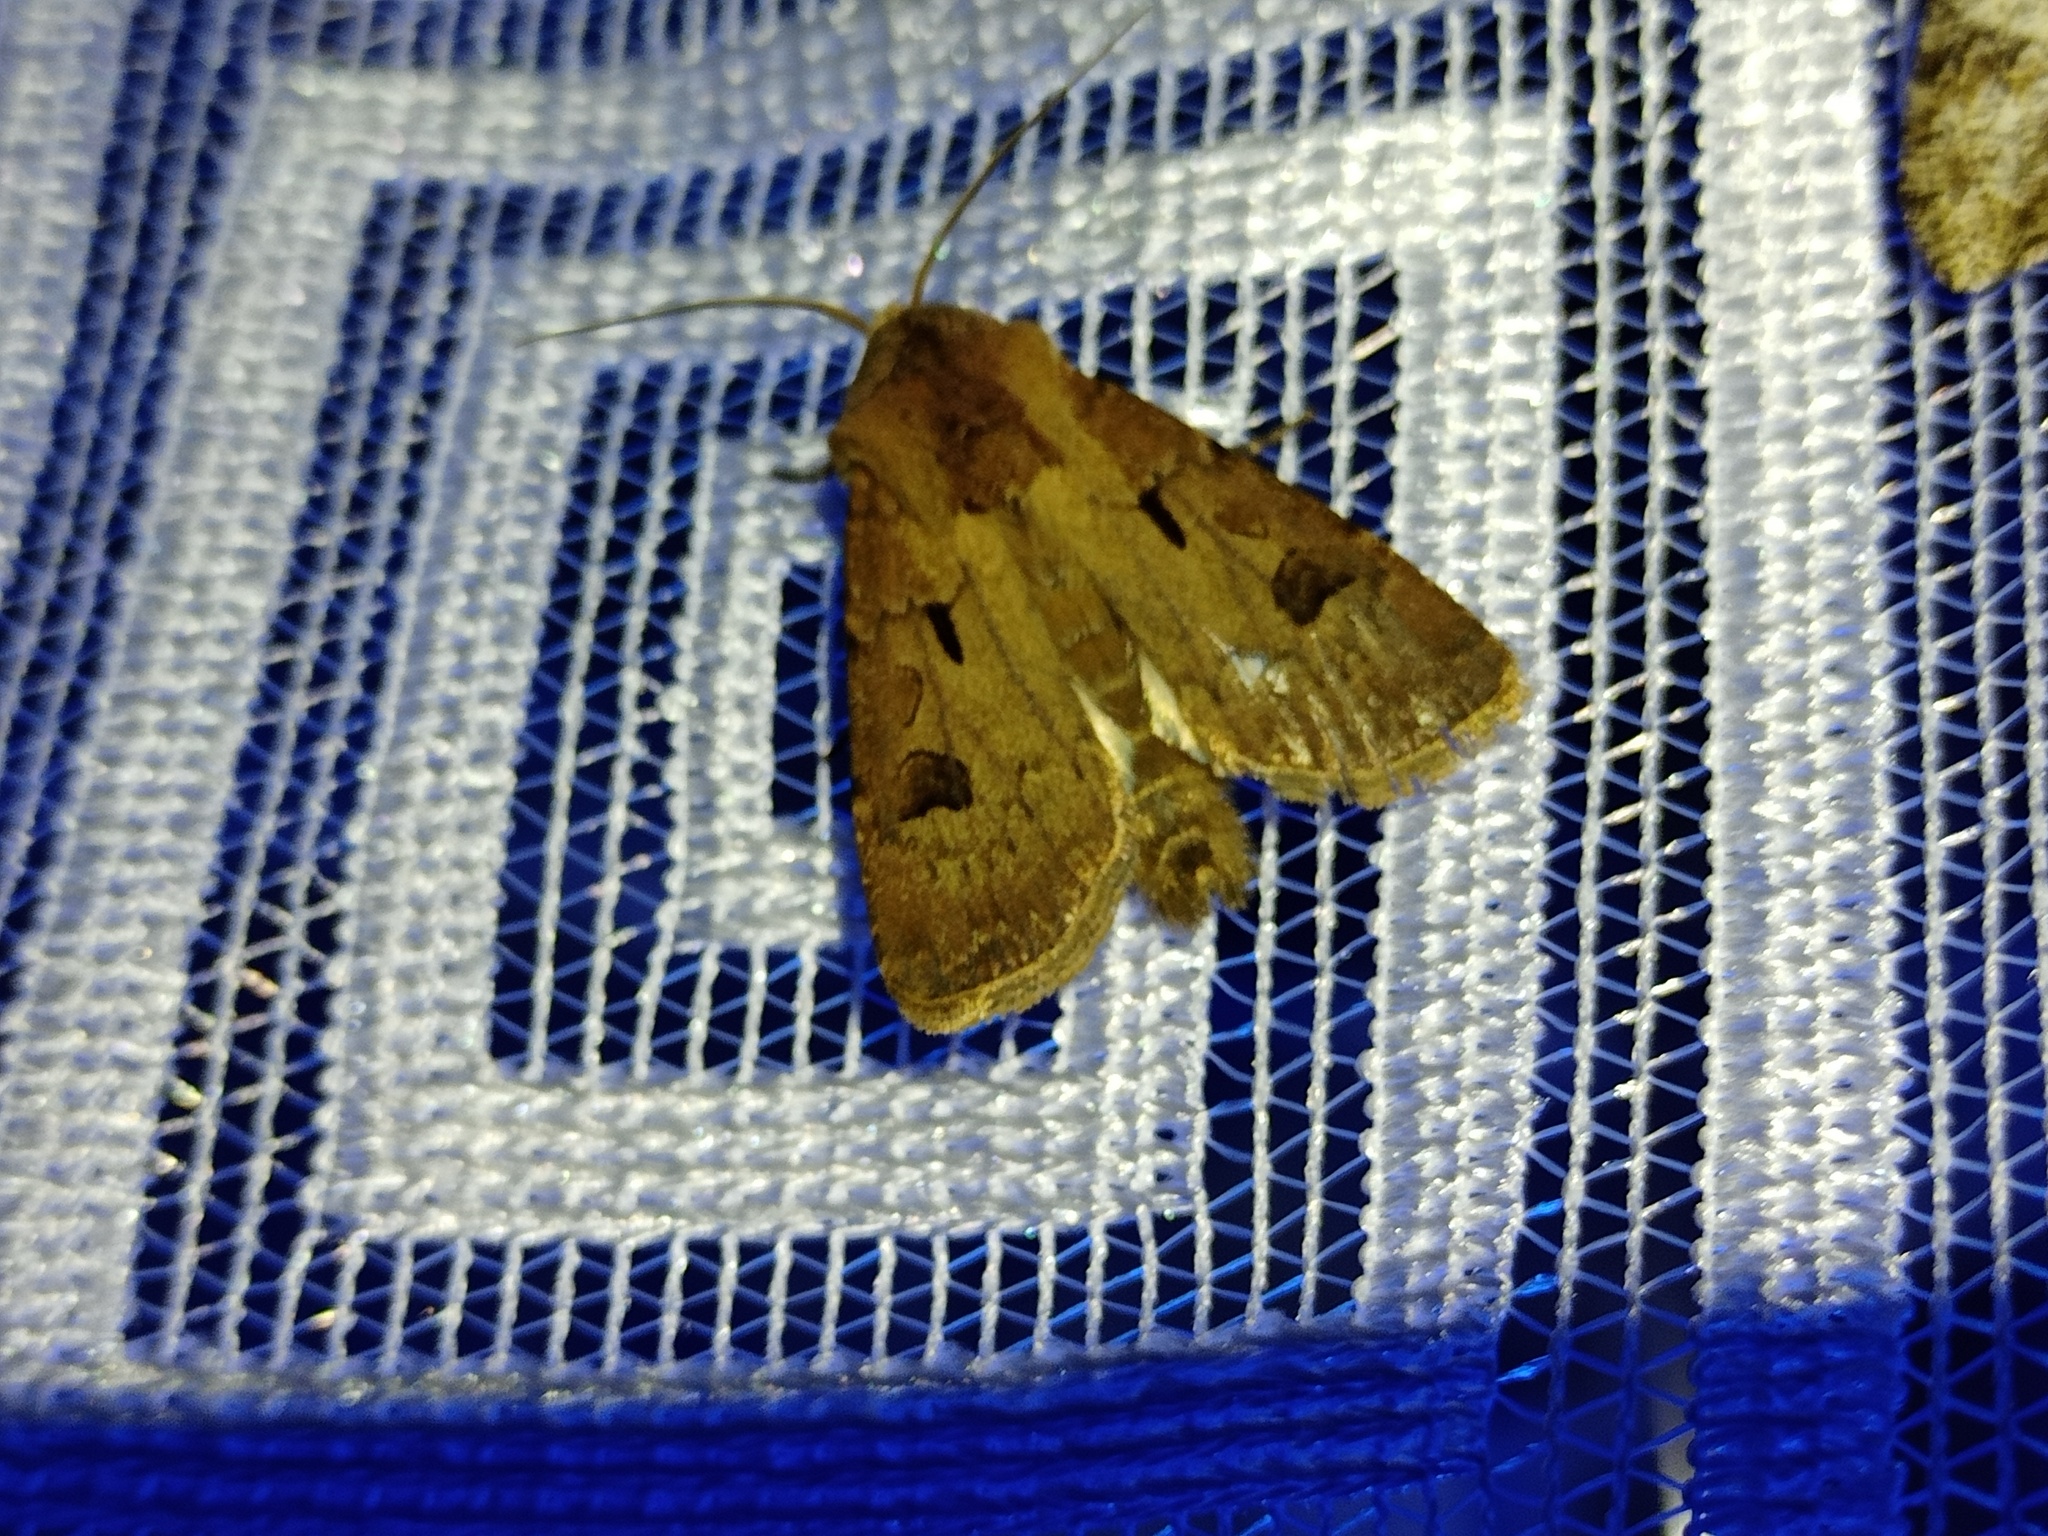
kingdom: Animalia
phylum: Arthropoda
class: Insecta
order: Lepidoptera
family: Noctuidae
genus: Agrotis
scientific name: Agrotis exclamationis
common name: Heart and dart
